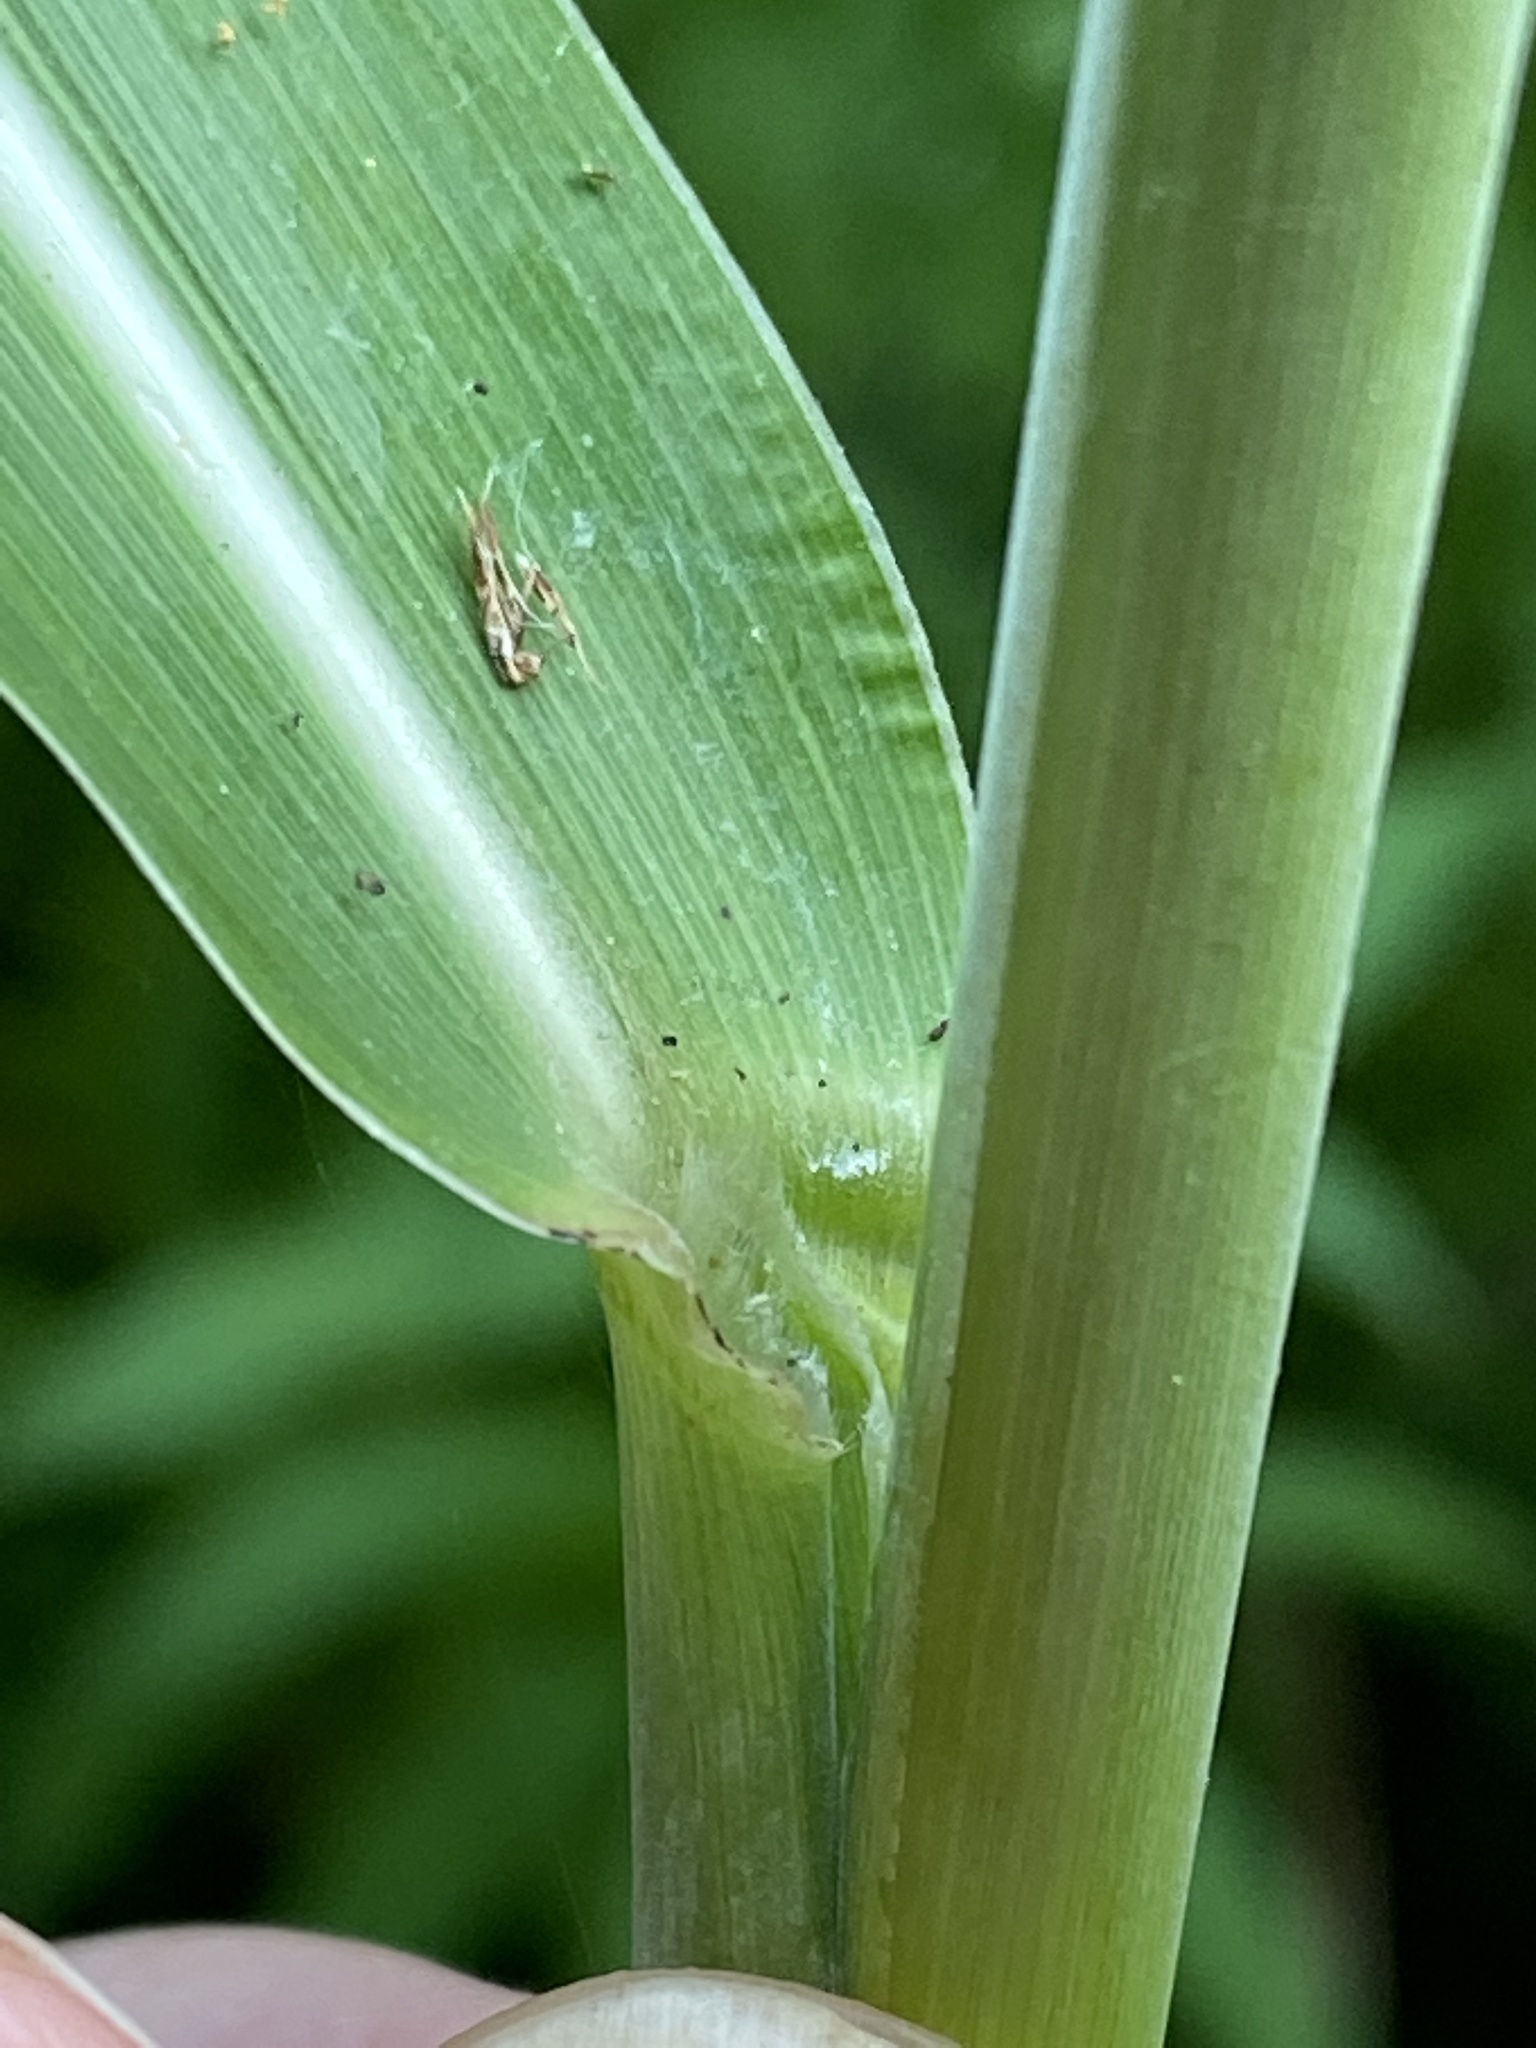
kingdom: Plantae
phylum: Tracheophyta
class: Liliopsida
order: Poales
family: Poaceae
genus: Sorghum
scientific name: Sorghum halepense
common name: Johnson-grass
